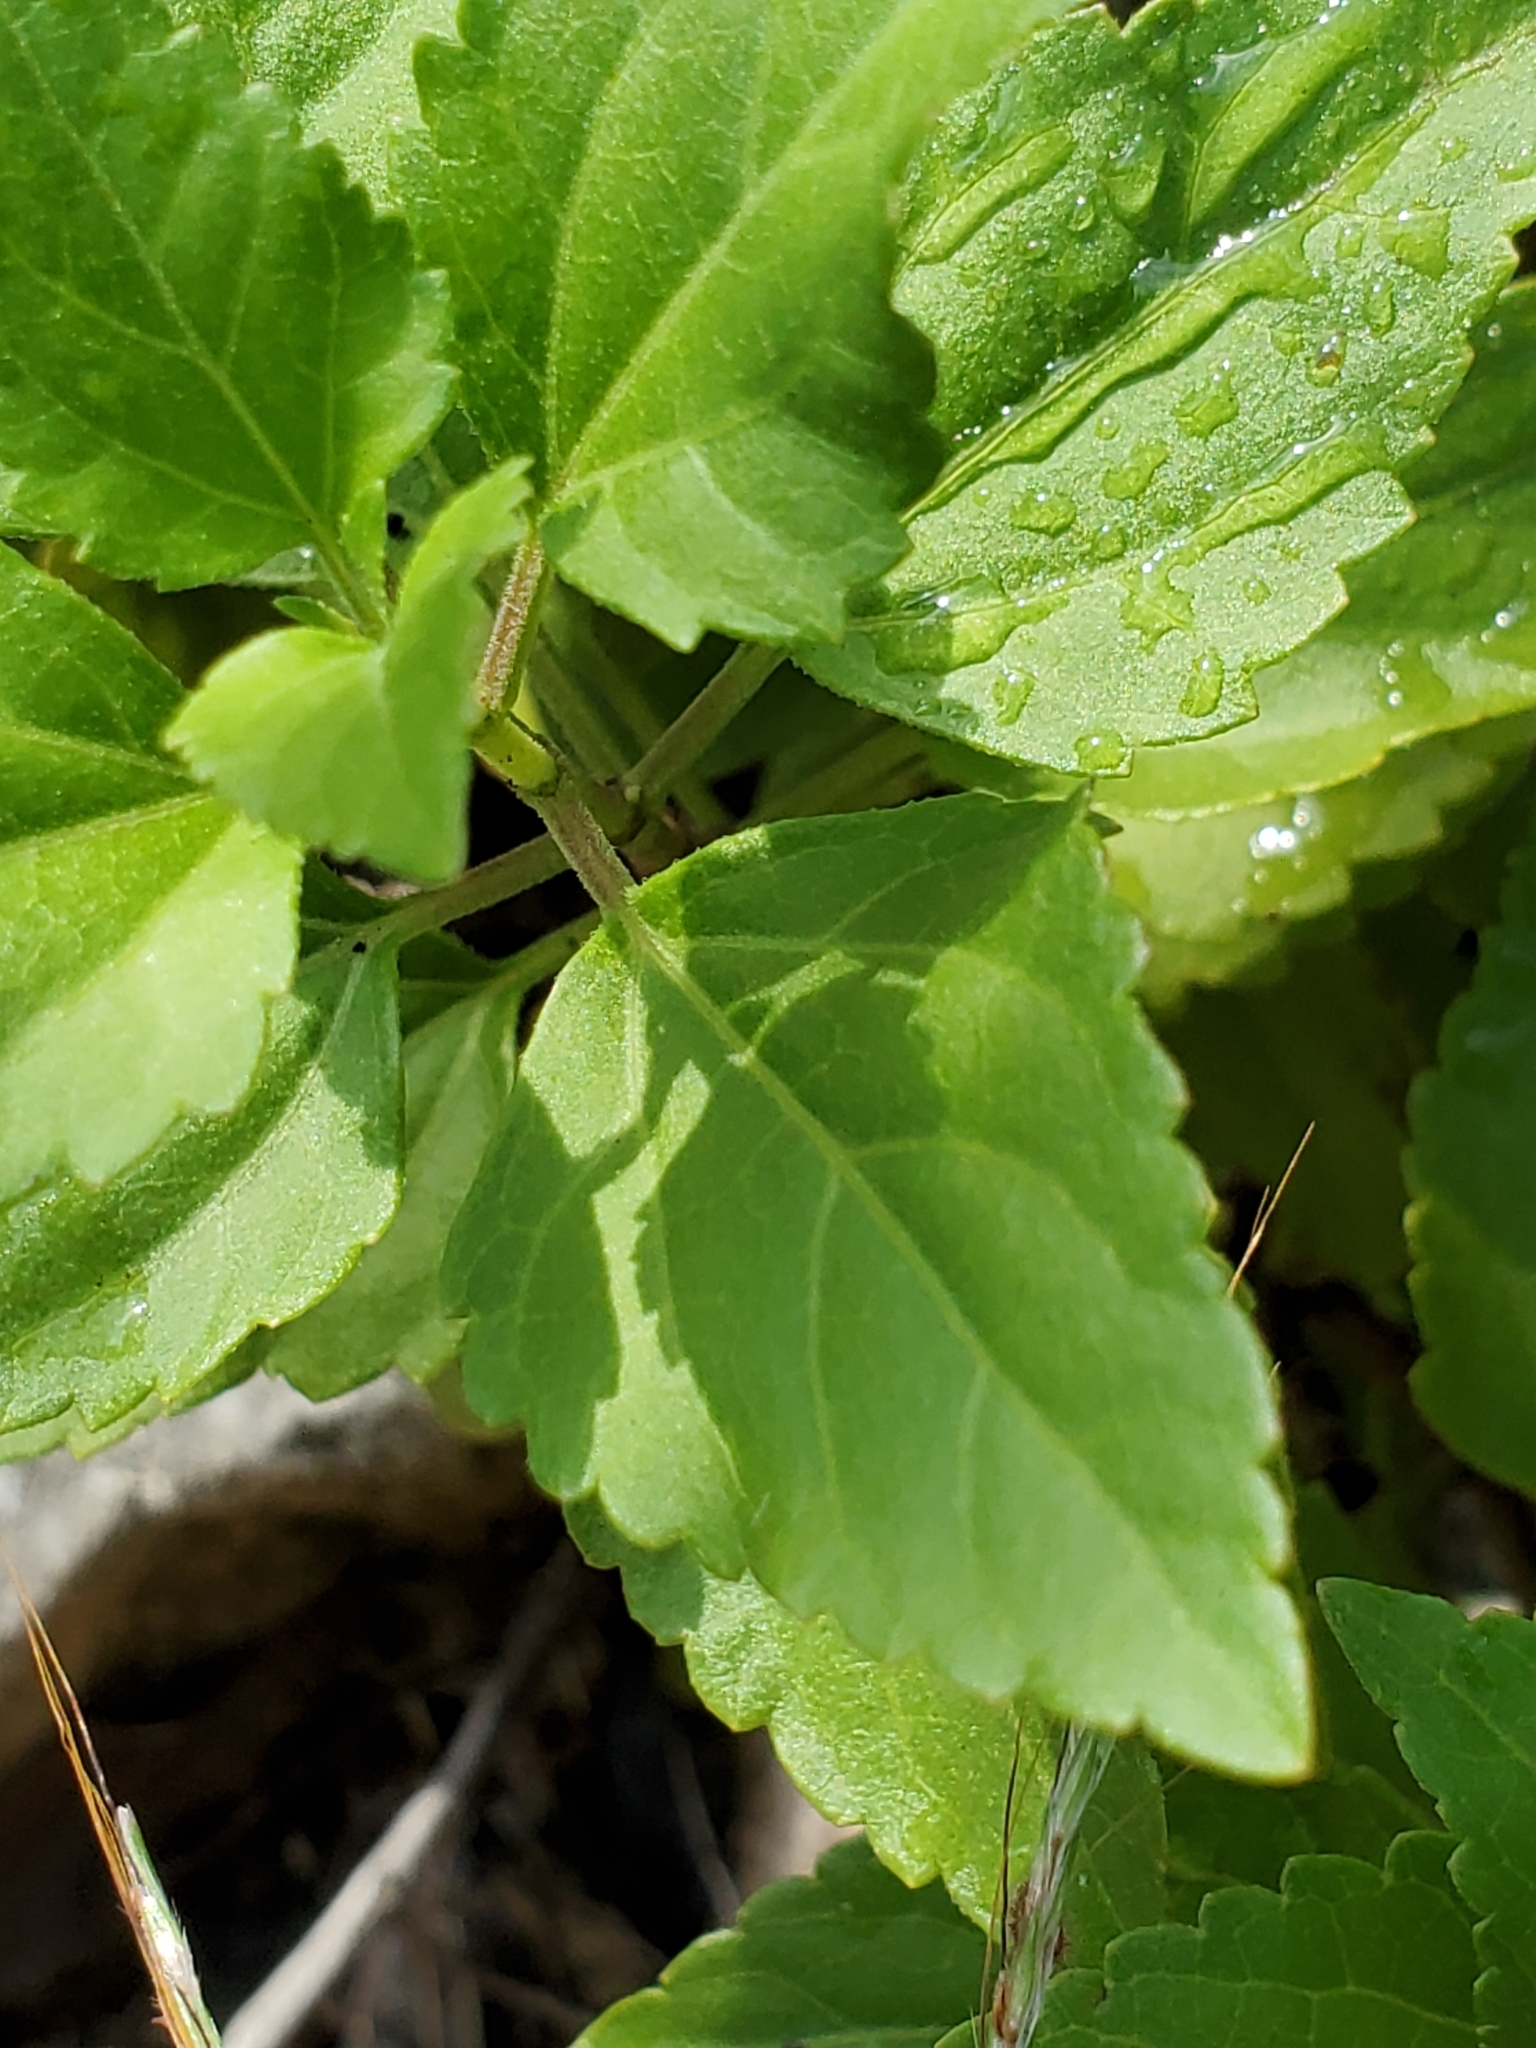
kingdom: Plantae
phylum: Tracheophyta
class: Magnoliopsida
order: Asterales
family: Asteraceae
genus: Ageratina
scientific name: Ageratina havanensis
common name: Havana snakeroot
